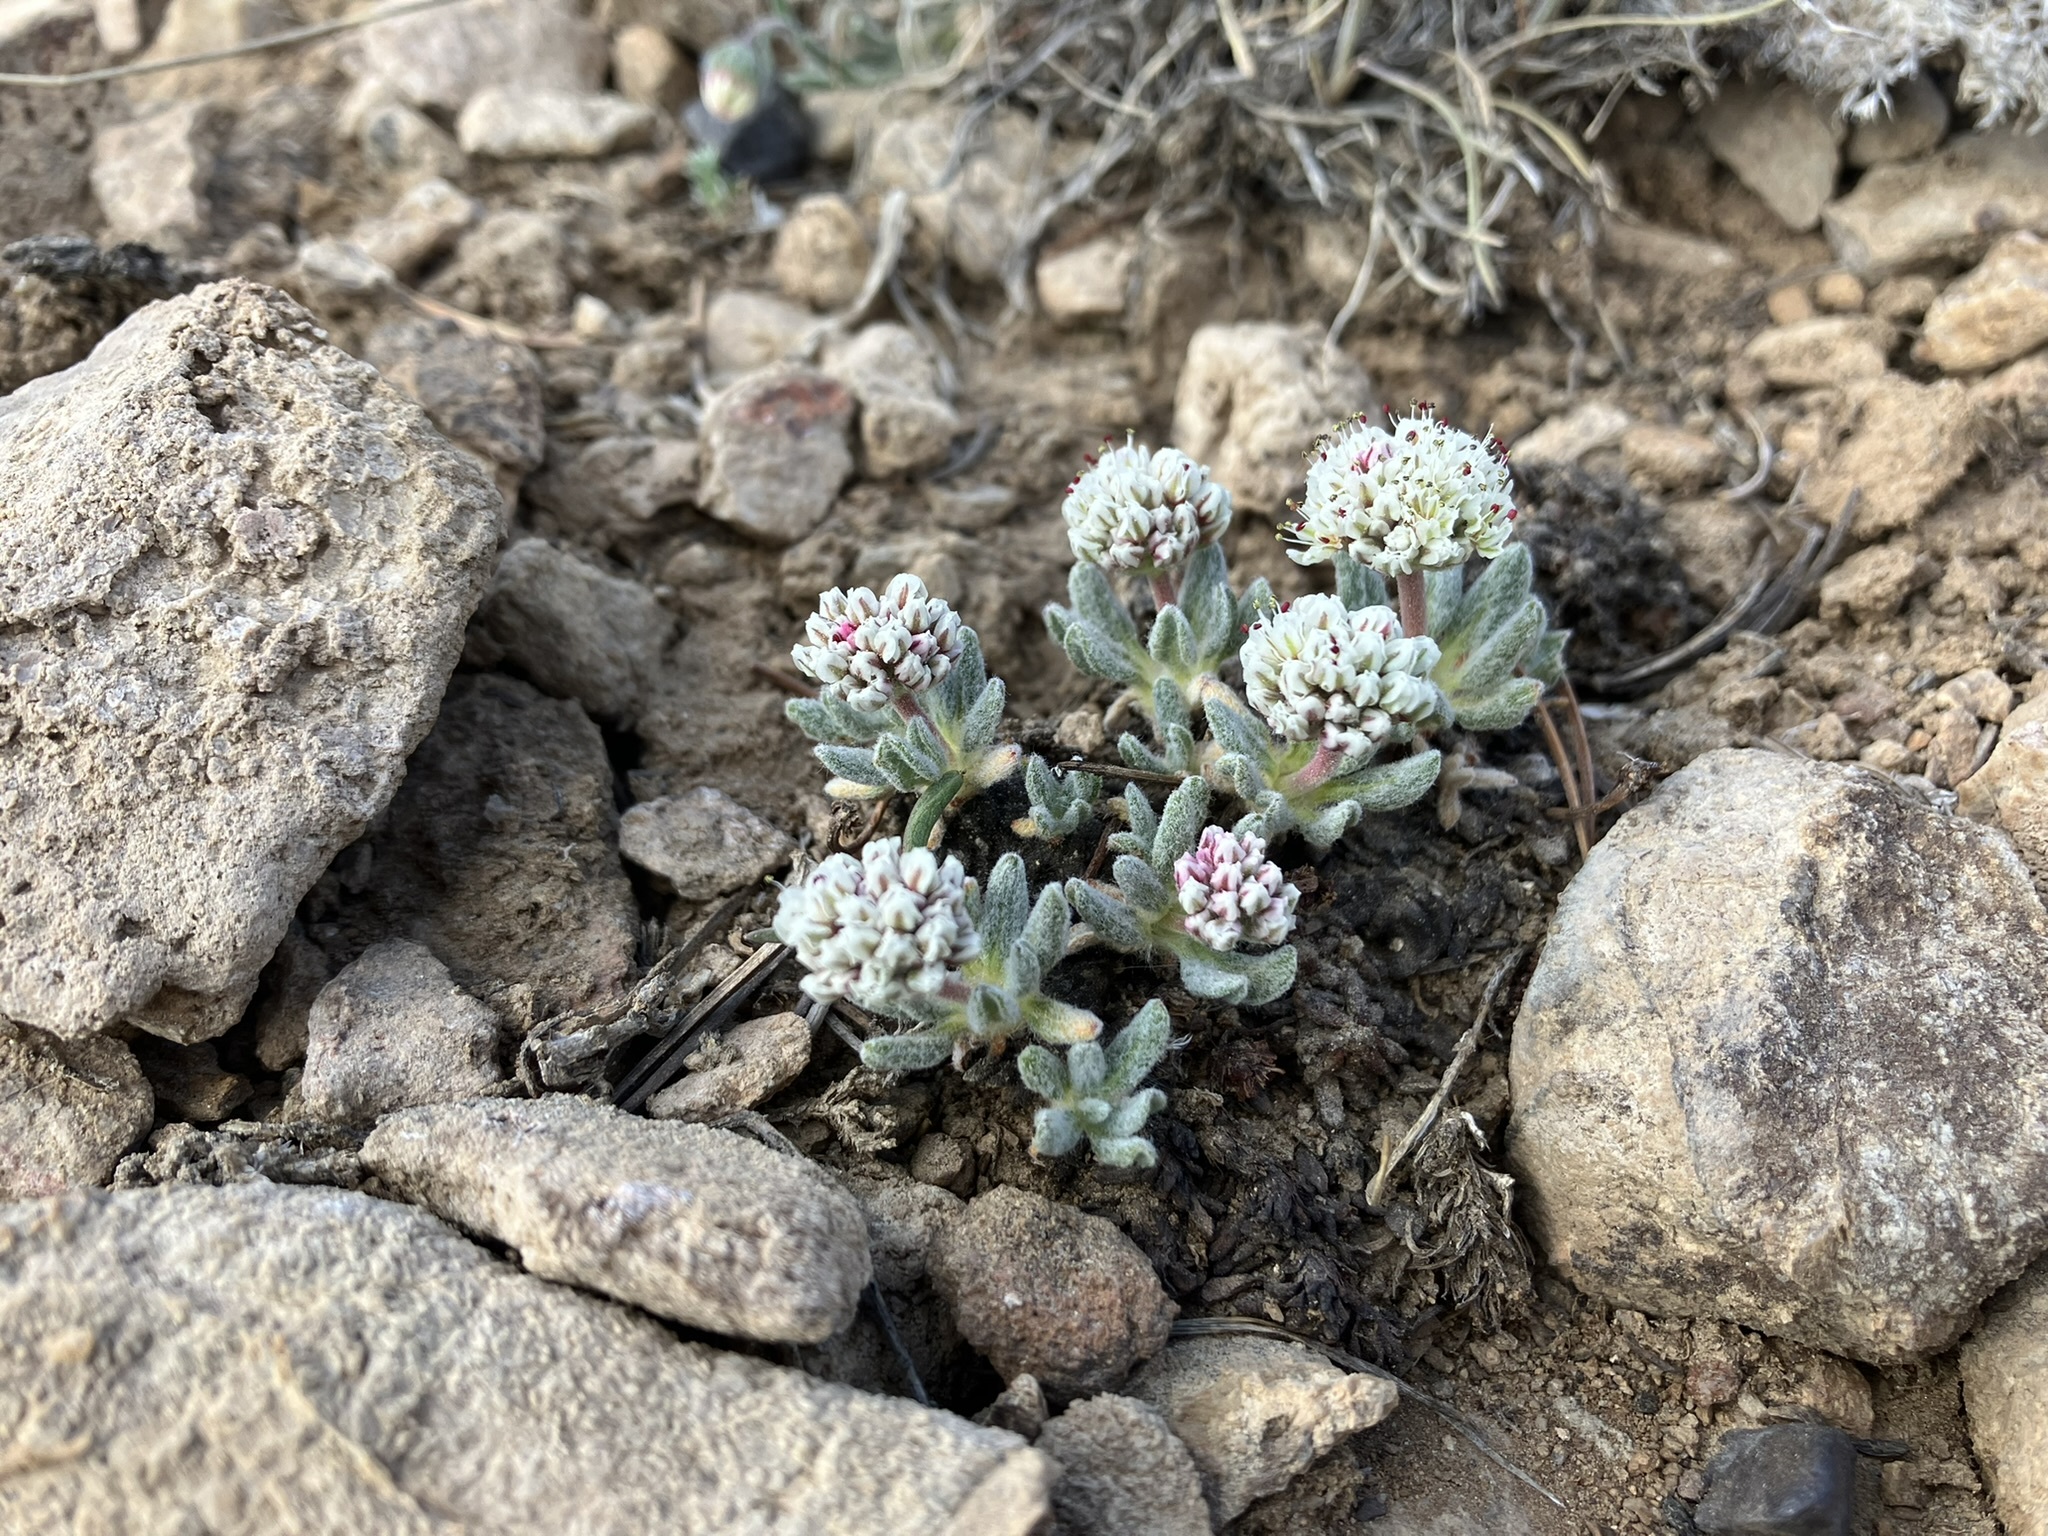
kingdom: Plantae
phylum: Tracheophyta
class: Magnoliopsida
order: Caryophyllales
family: Polygonaceae
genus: Eriogonum
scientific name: Eriogonum gracilipes
